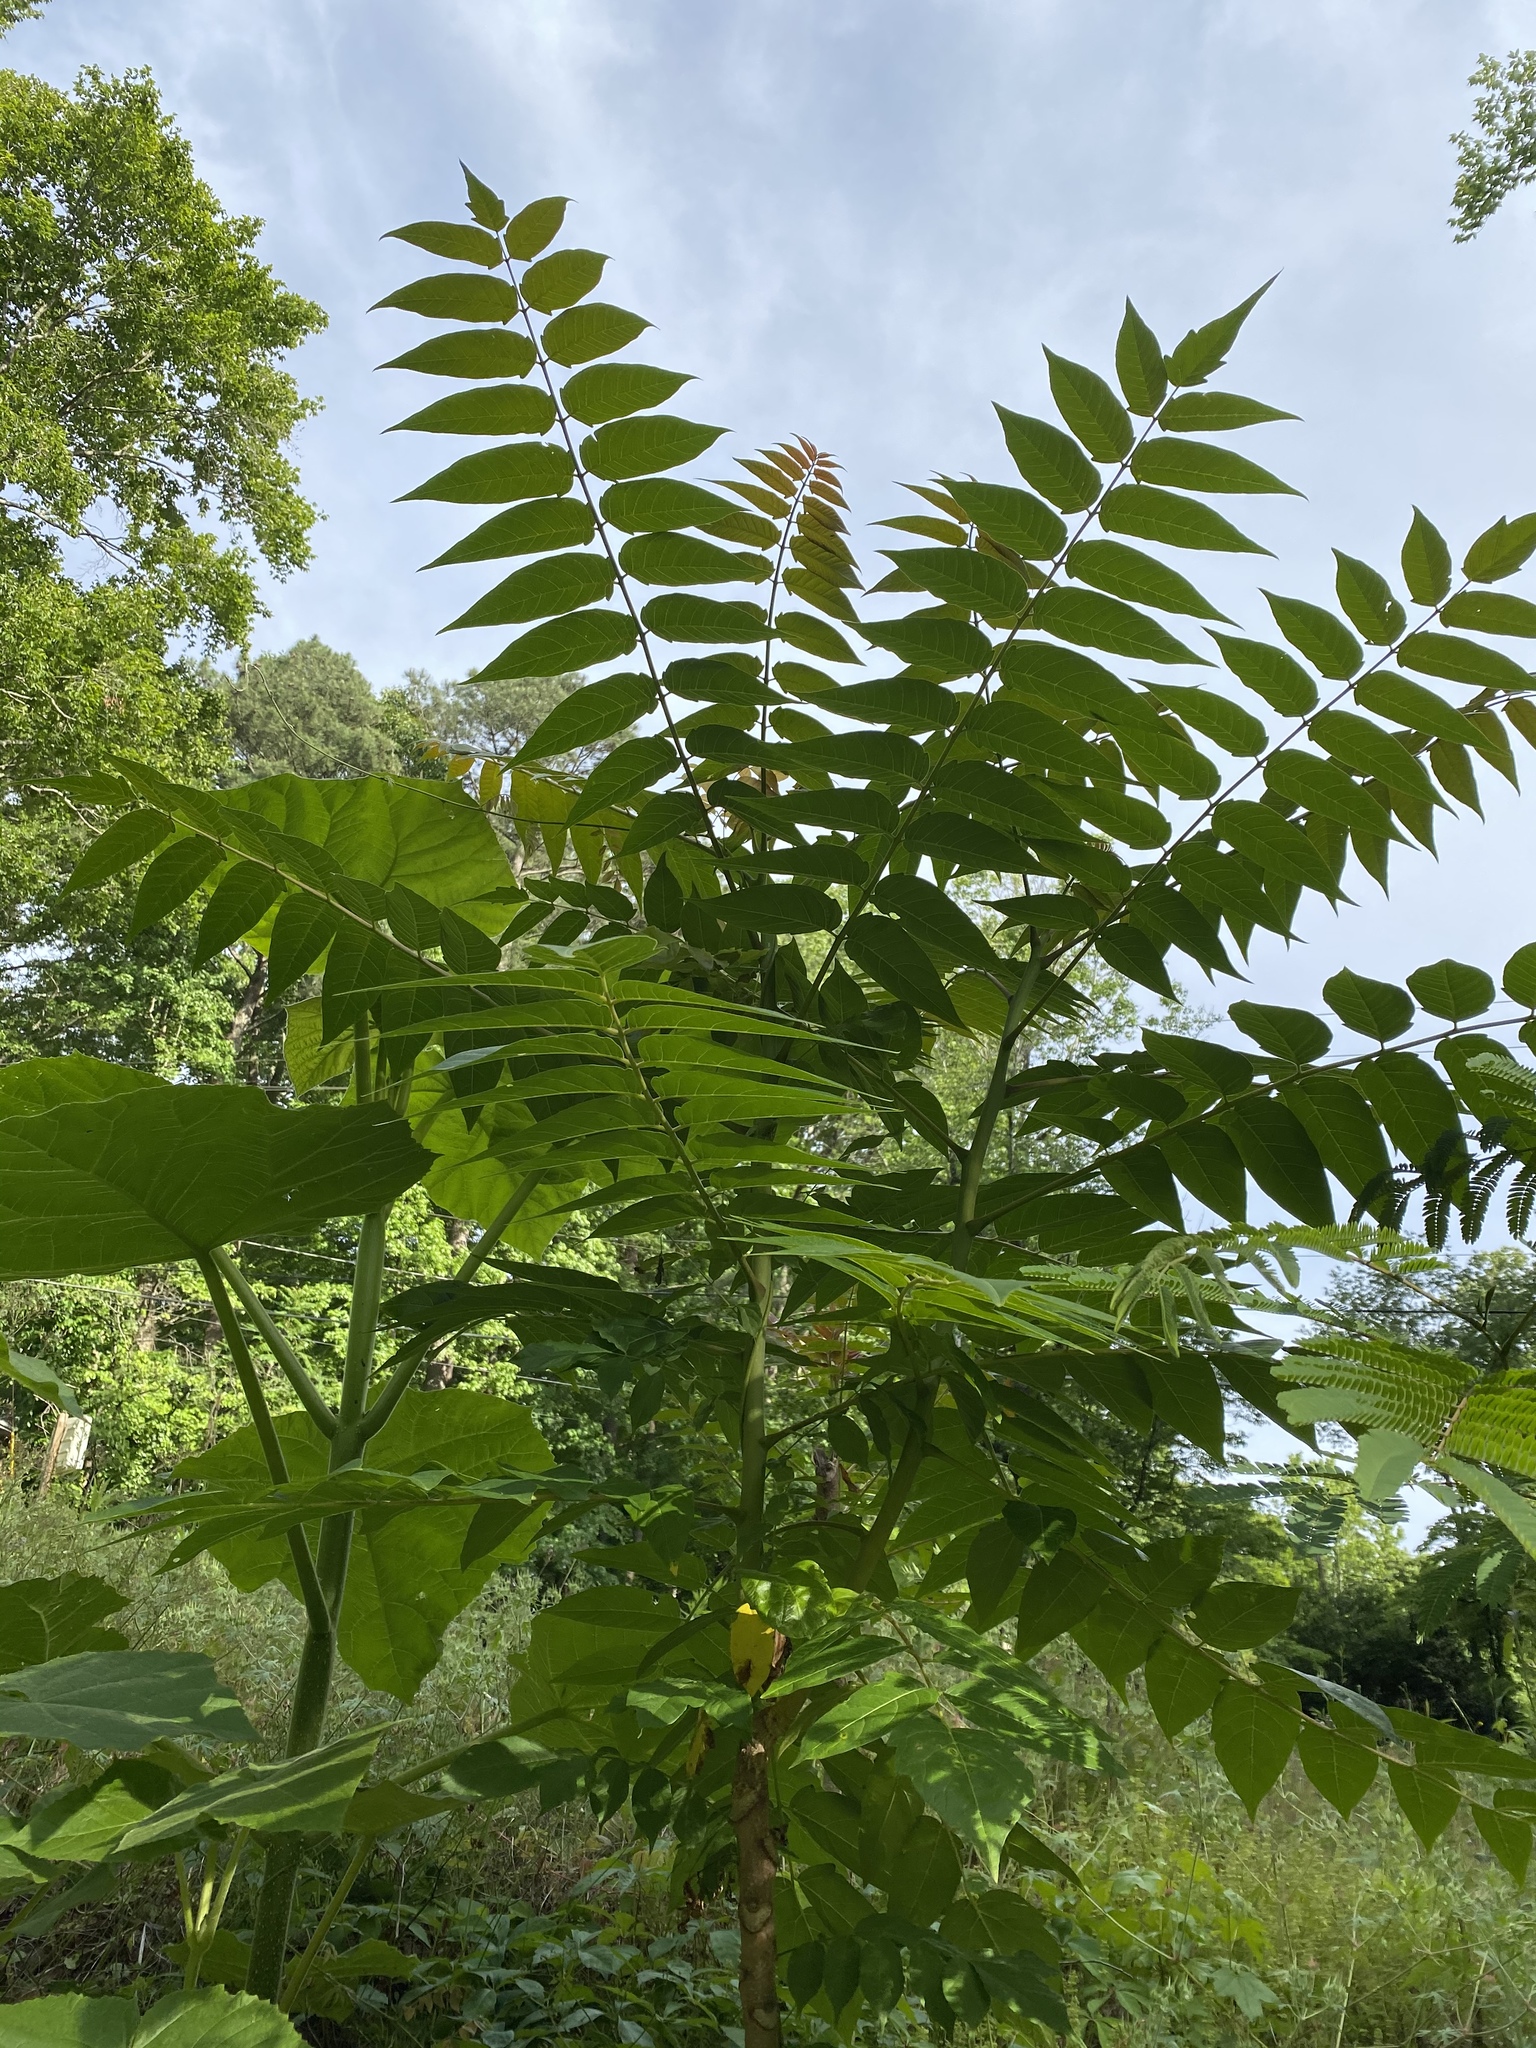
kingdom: Plantae
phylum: Tracheophyta
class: Magnoliopsida
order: Sapindales
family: Simaroubaceae
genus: Ailanthus
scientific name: Ailanthus altissima
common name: Tree-of-heaven
